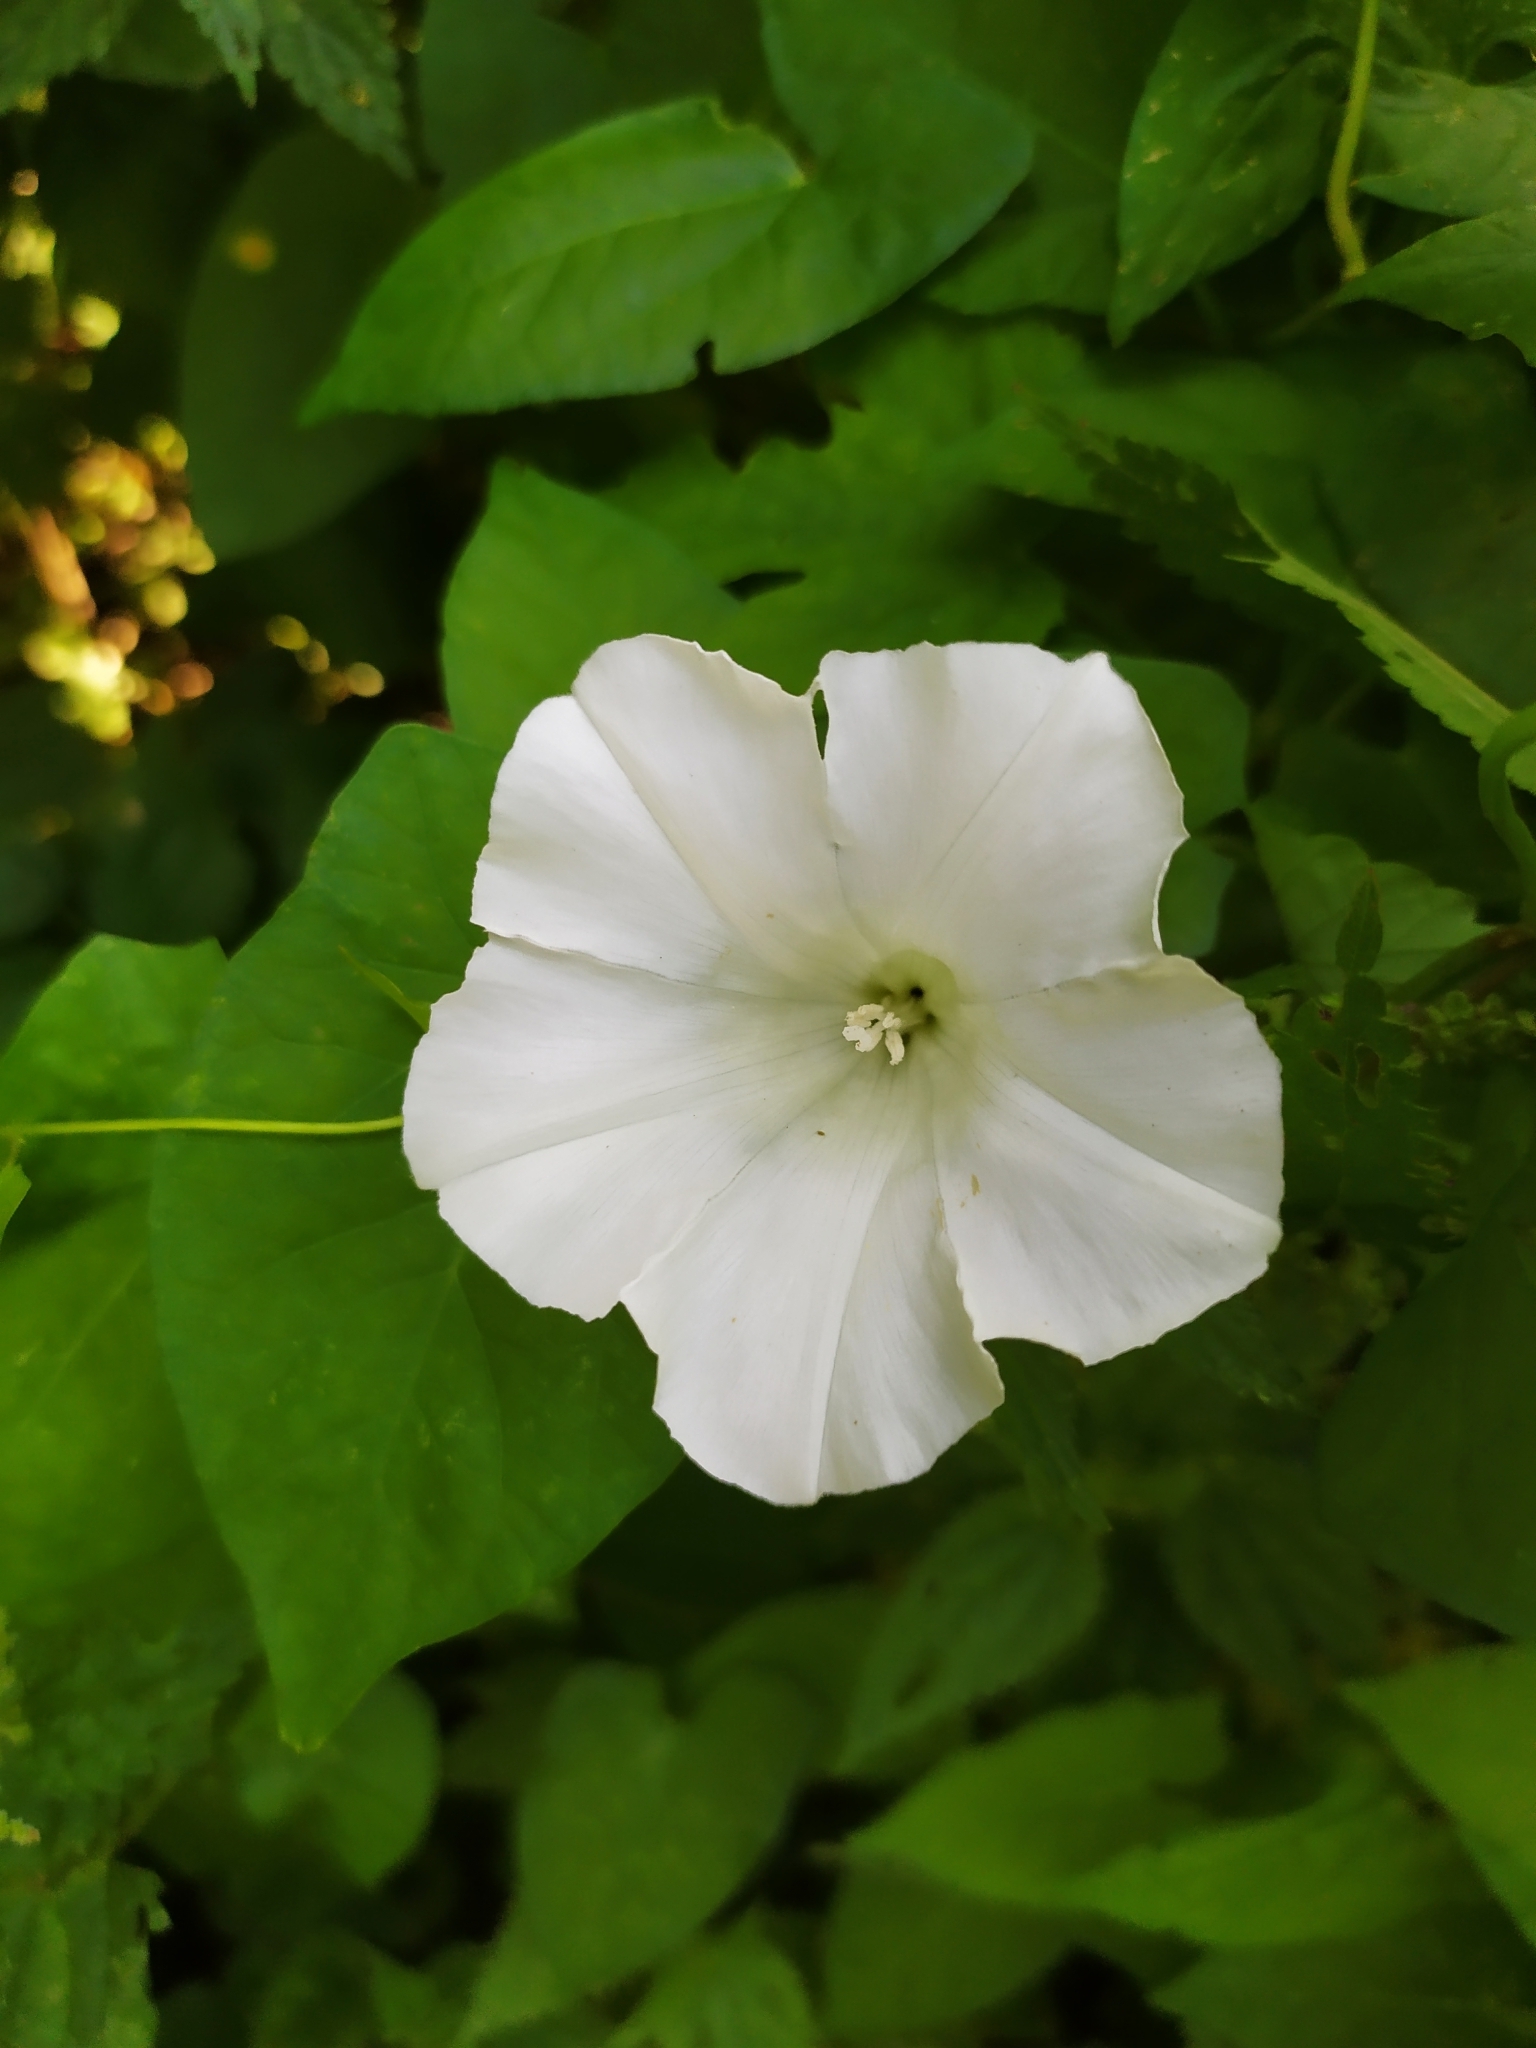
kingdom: Plantae
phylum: Tracheophyta
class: Magnoliopsida
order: Solanales
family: Convolvulaceae
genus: Calystegia
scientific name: Calystegia sepium
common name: Hedge bindweed
